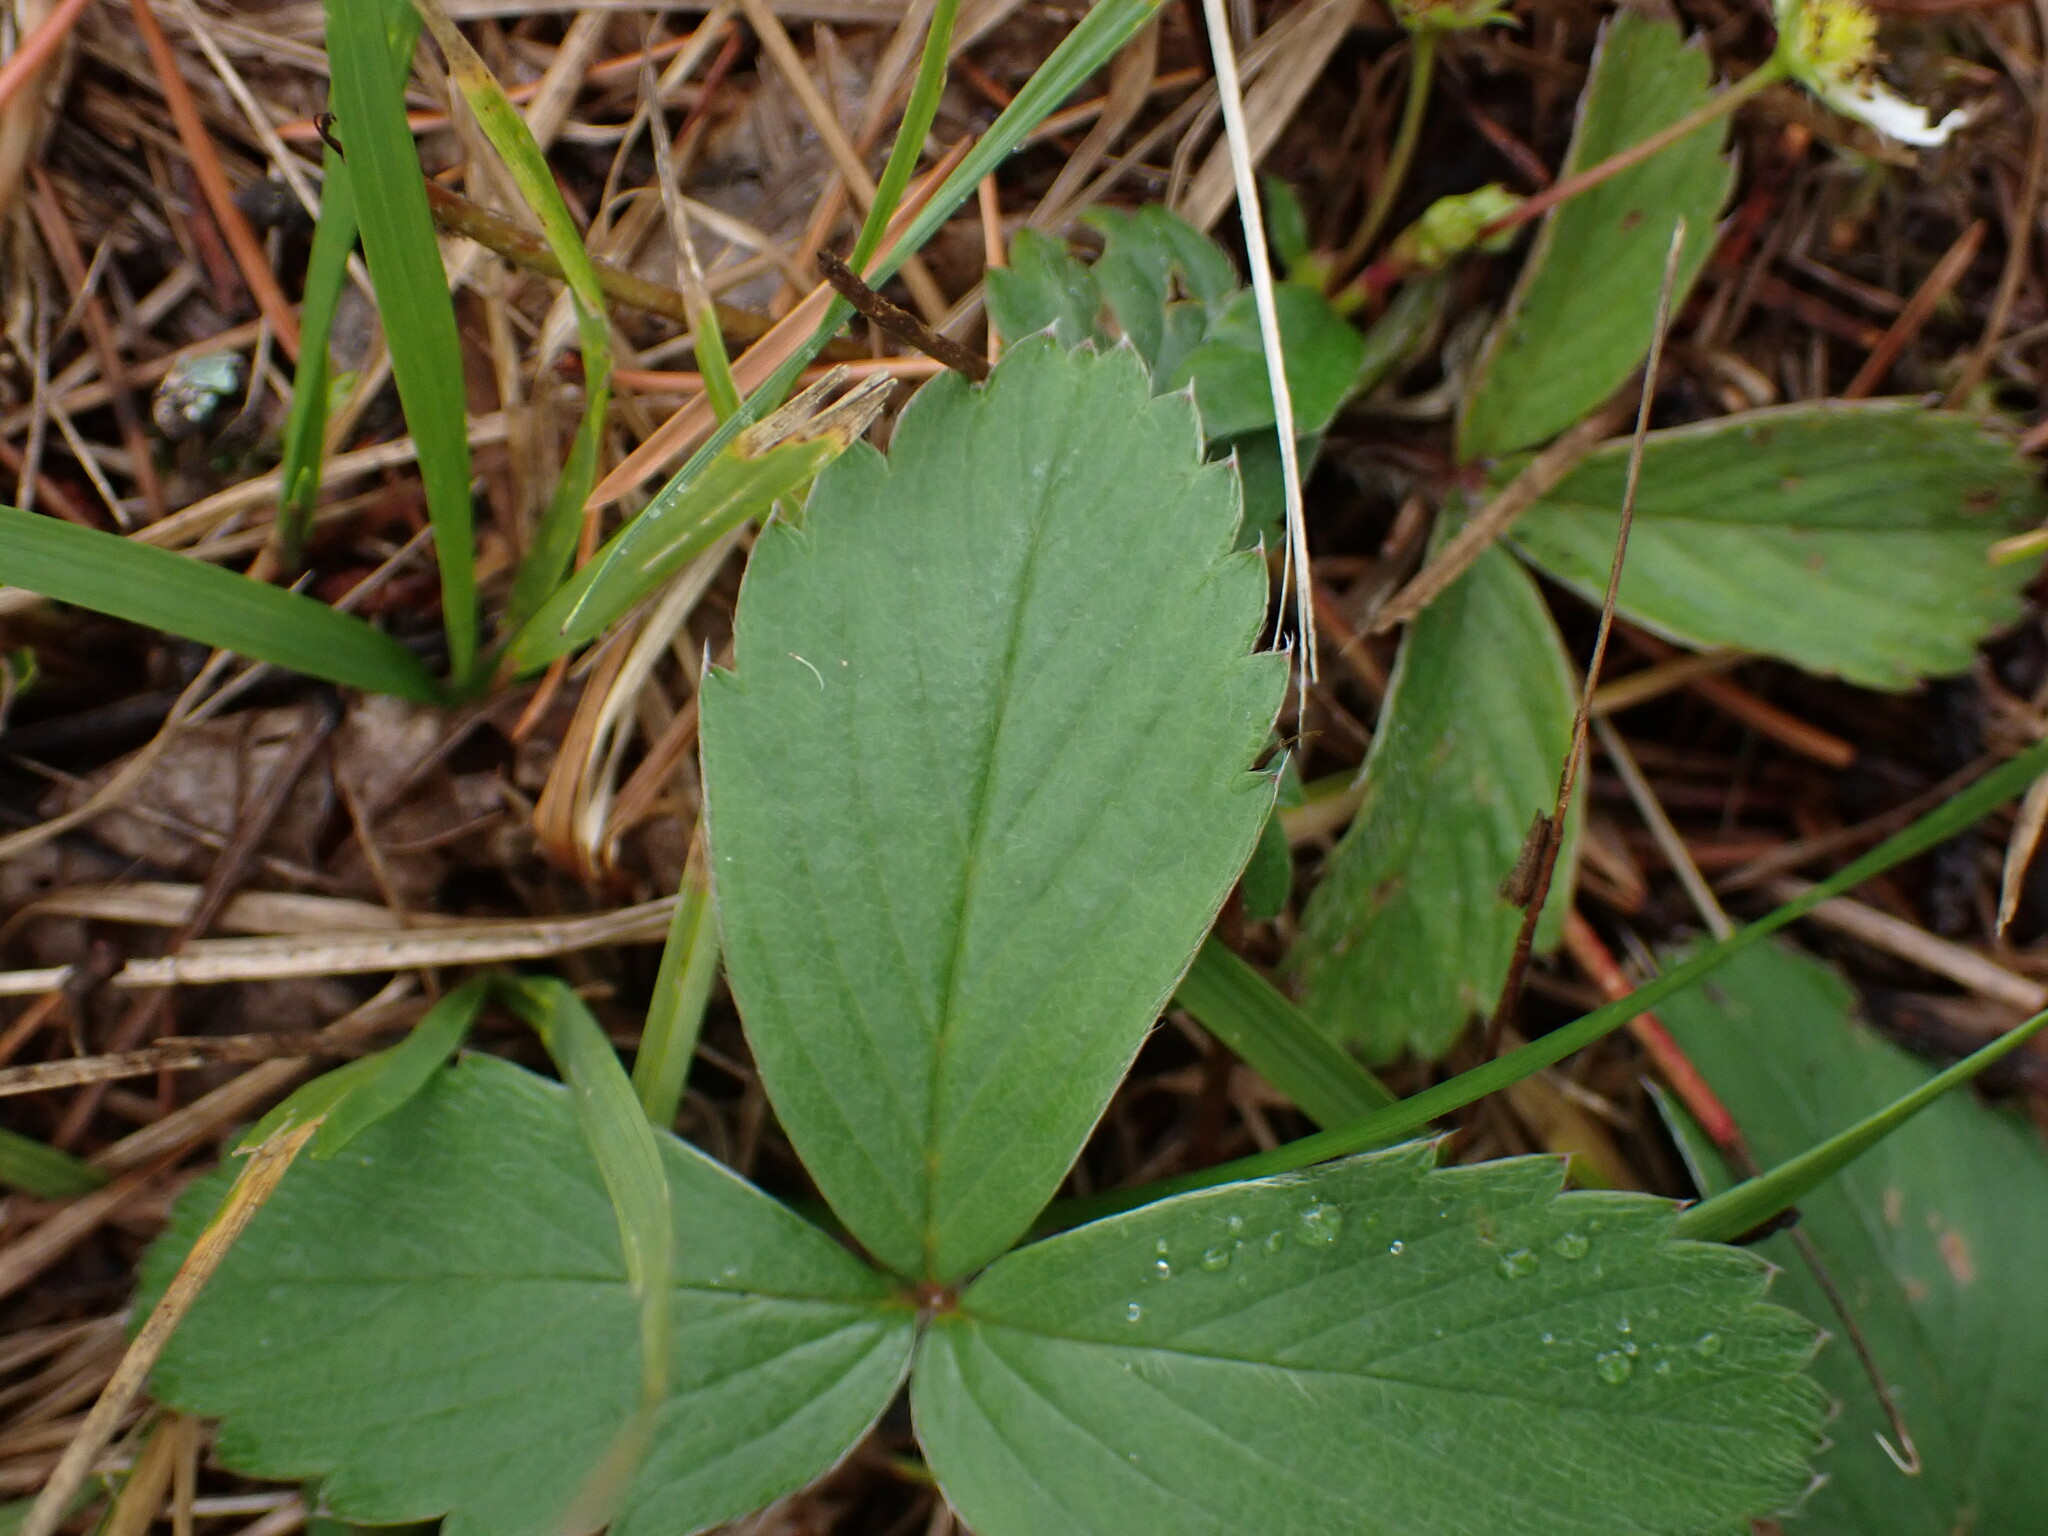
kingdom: Plantae
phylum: Tracheophyta
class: Magnoliopsida
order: Rosales
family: Rosaceae
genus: Fragaria
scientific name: Fragaria virginiana
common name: Thickleaved wild strawberry
